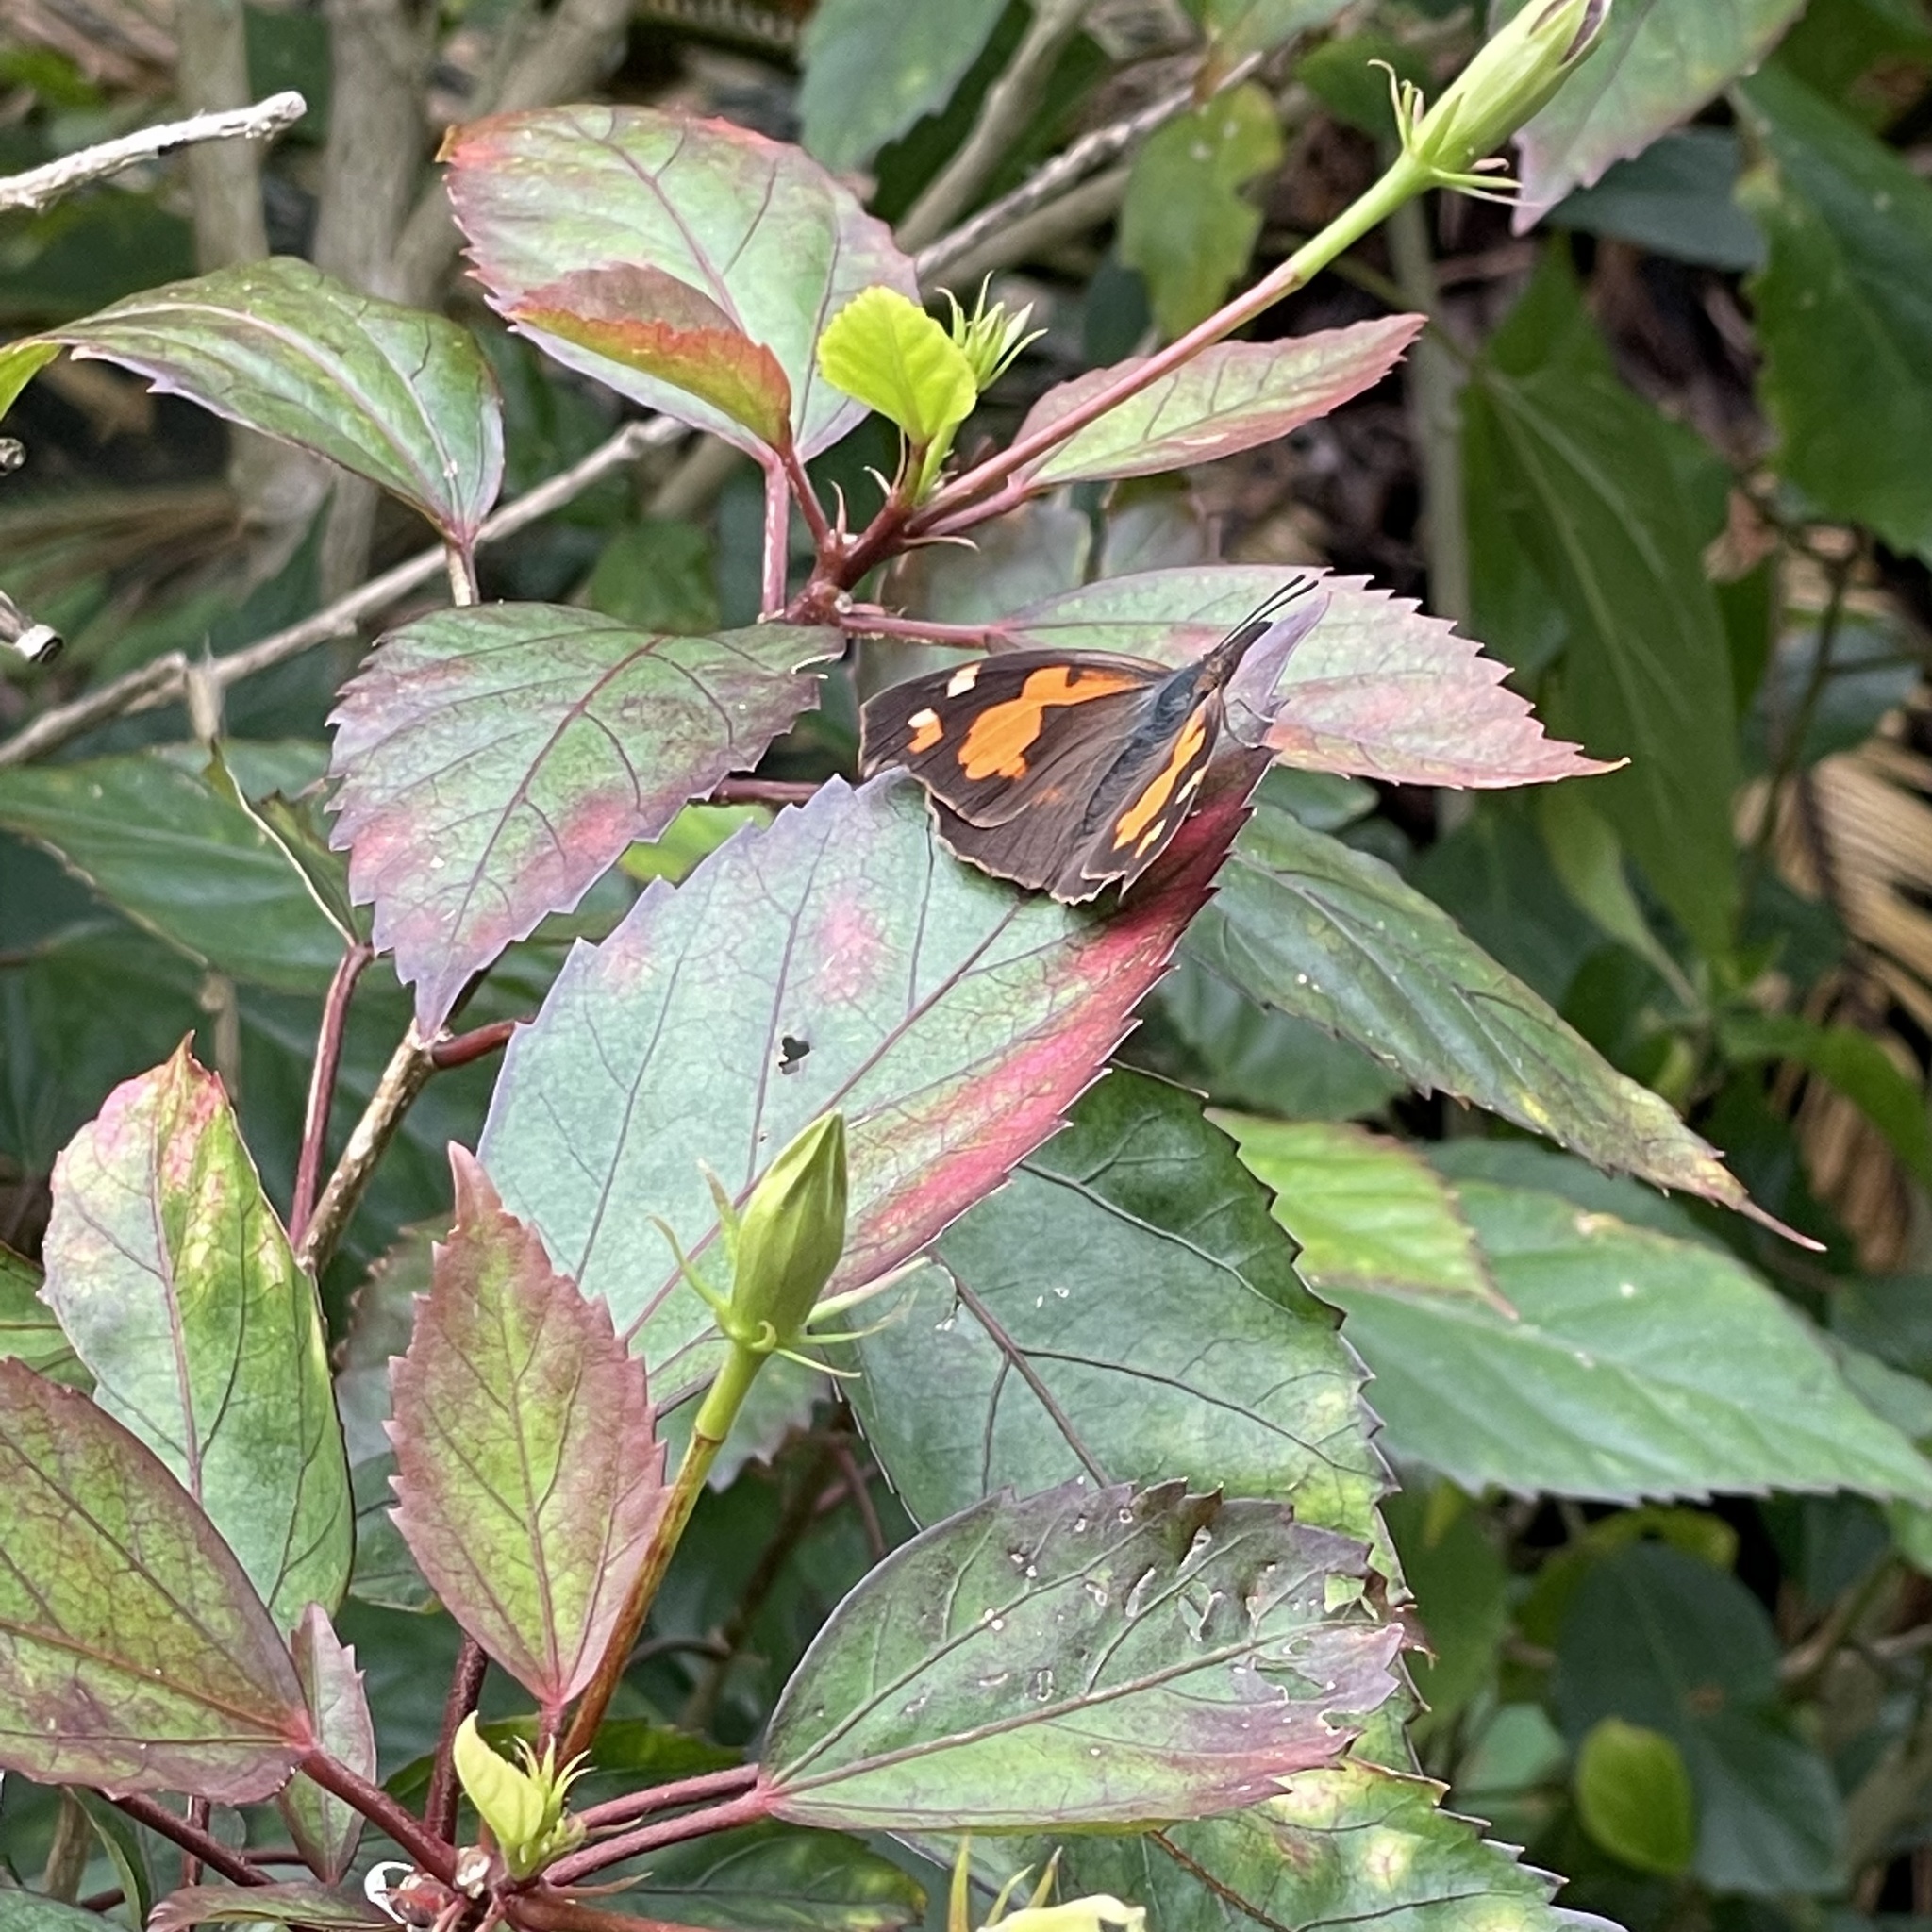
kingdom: Animalia
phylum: Arthropoda
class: Insecta
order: Lepidoptera
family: Nymphalidae
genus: Libythea
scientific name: Libythea lepita
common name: Common beak
